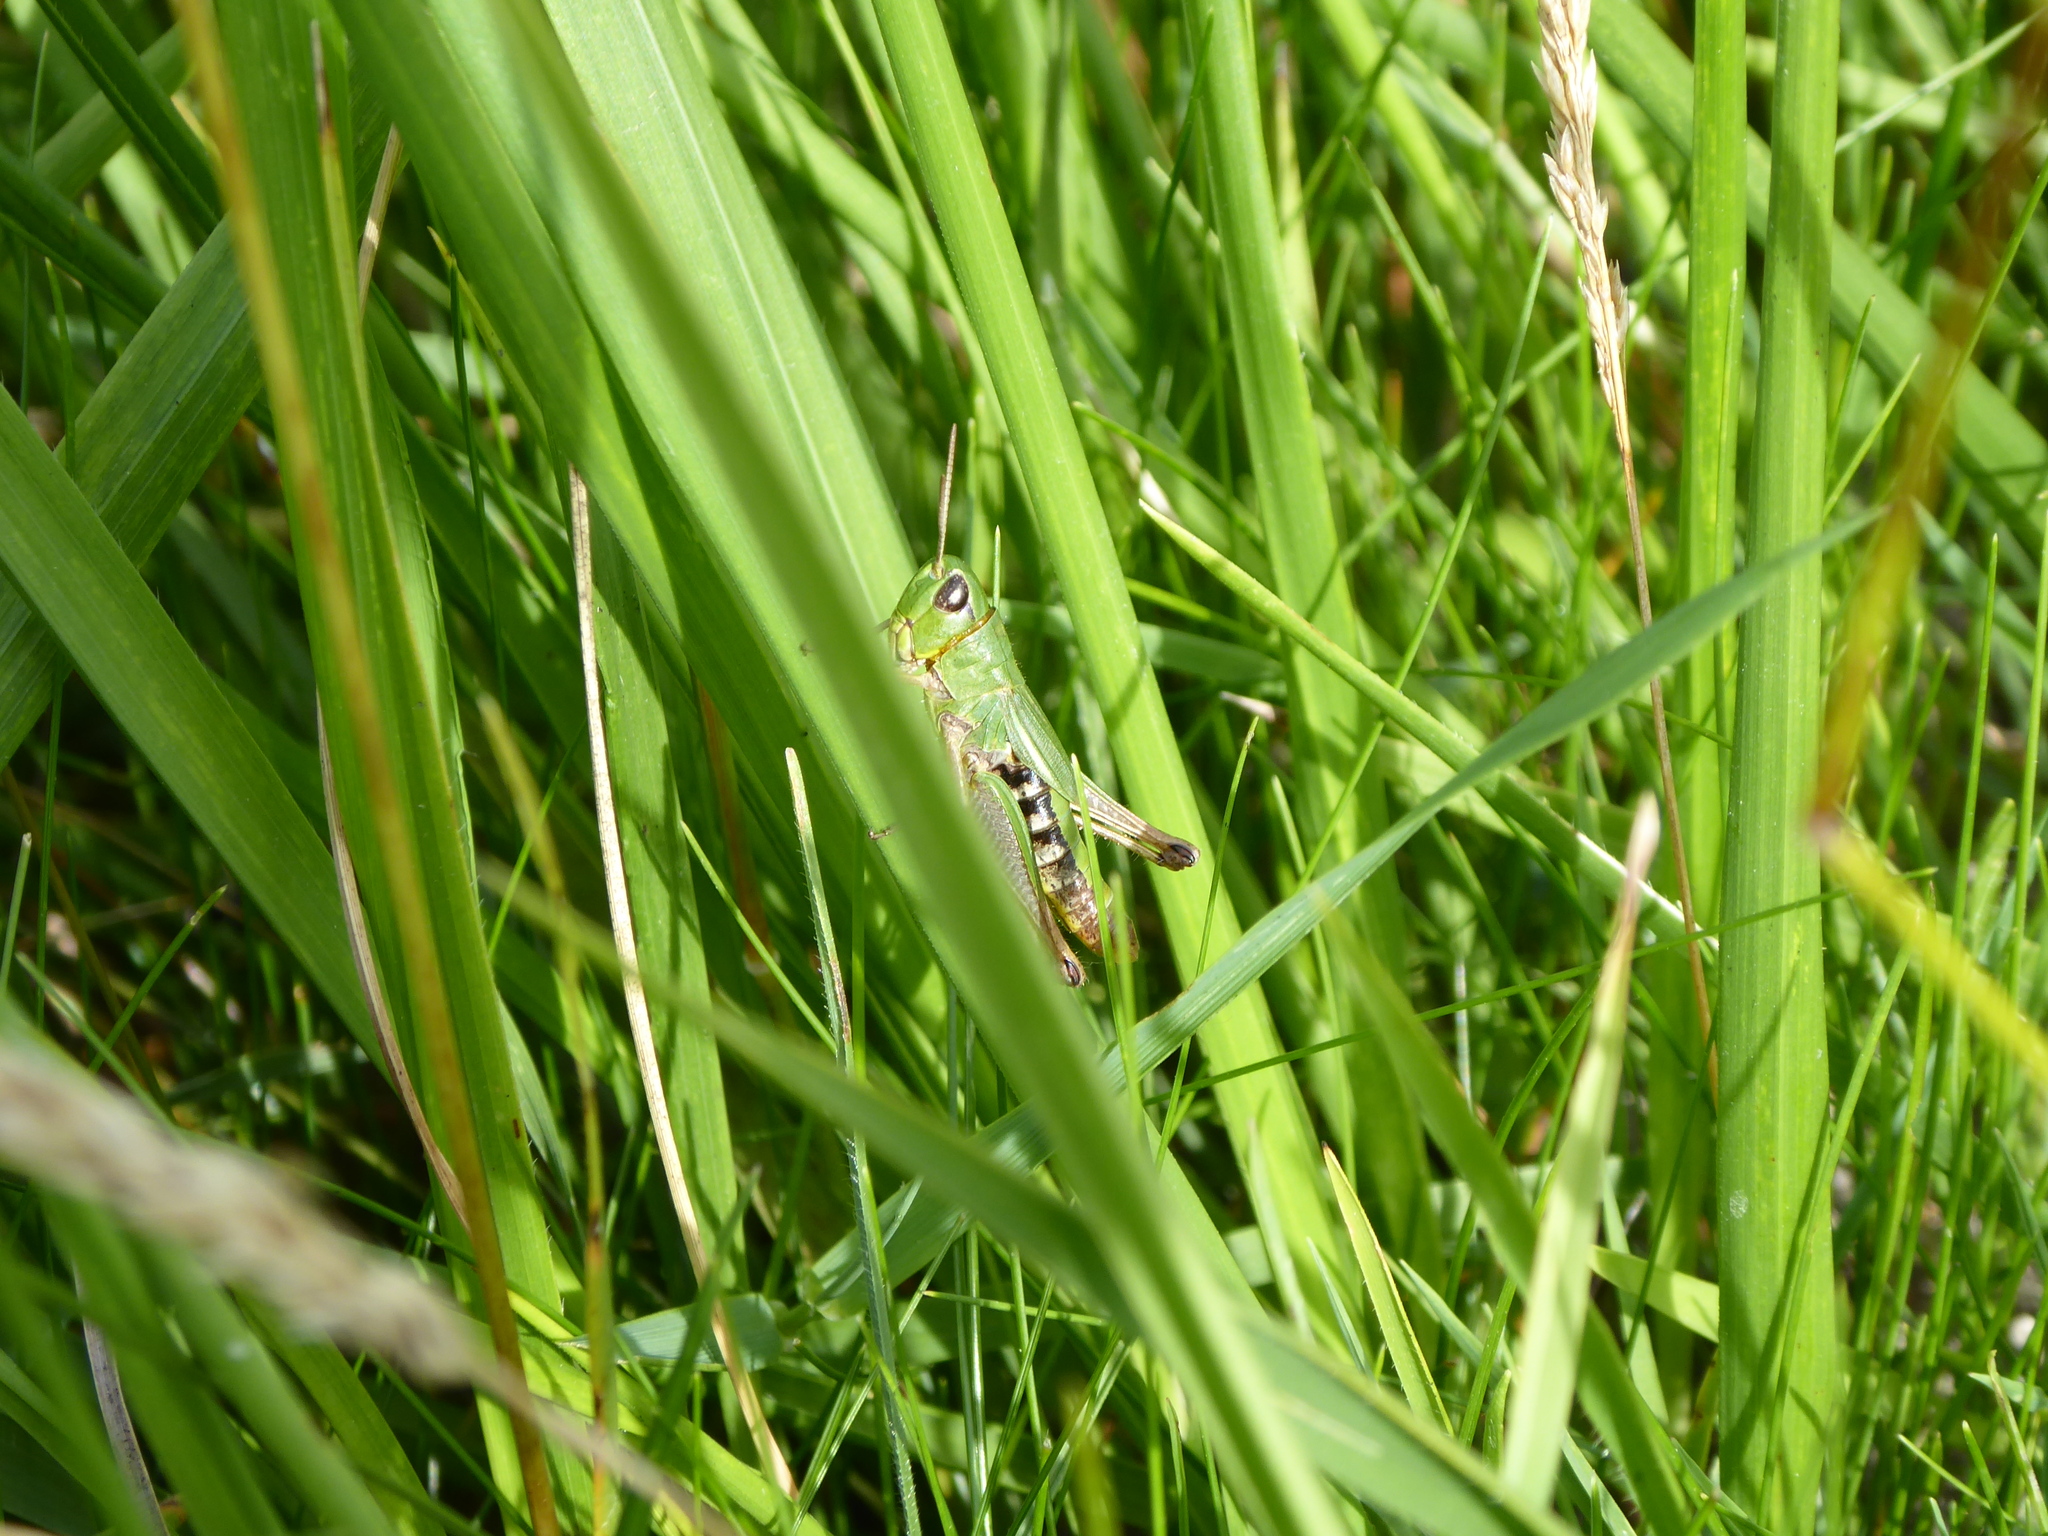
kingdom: Animalia
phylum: Arthropoda
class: Insecta
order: Orthoptera
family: Acrididae
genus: Pseudochorthippus
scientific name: Pseudochorthippus parallelus
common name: Meadow grasshopper
